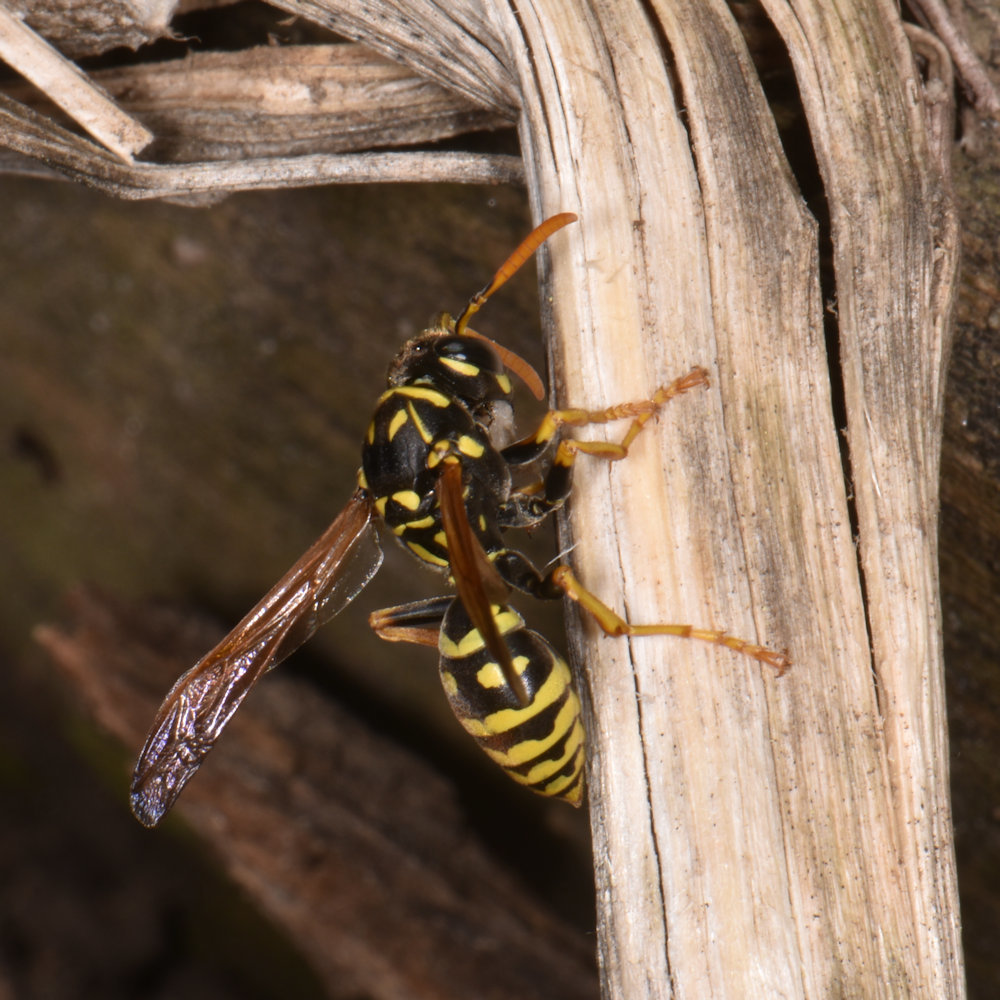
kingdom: Animalia
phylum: Arthropoda
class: Insecta
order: Hymenoptera
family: Eumenidae
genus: Polistes
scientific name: Polistes dominula
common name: Paper wasp
